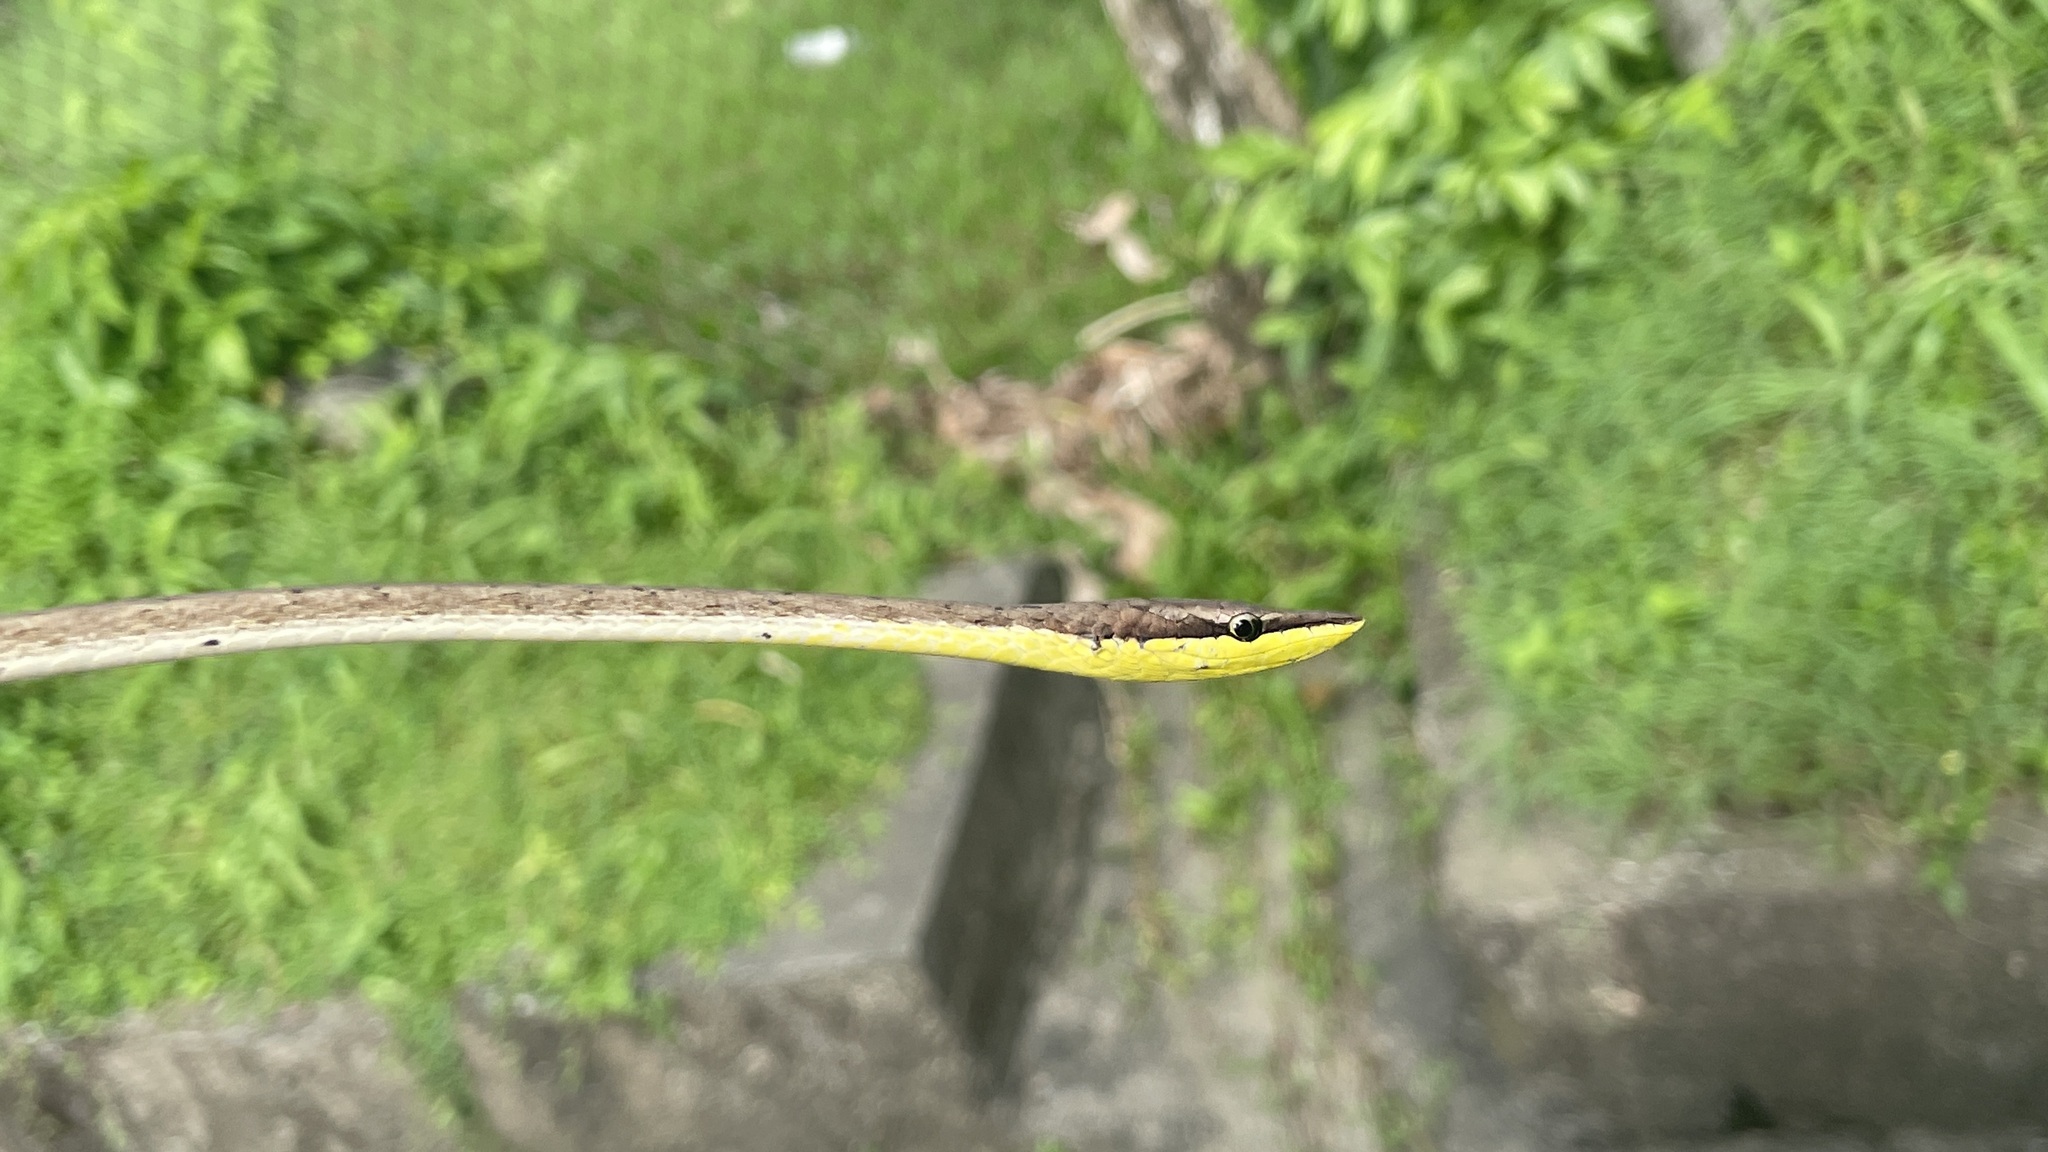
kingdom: Animalia
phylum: Chordata
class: Squamata
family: Colubridae
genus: Oxybelis
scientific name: Oxybelis rutherfordi
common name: Rutherford’s vine snake
